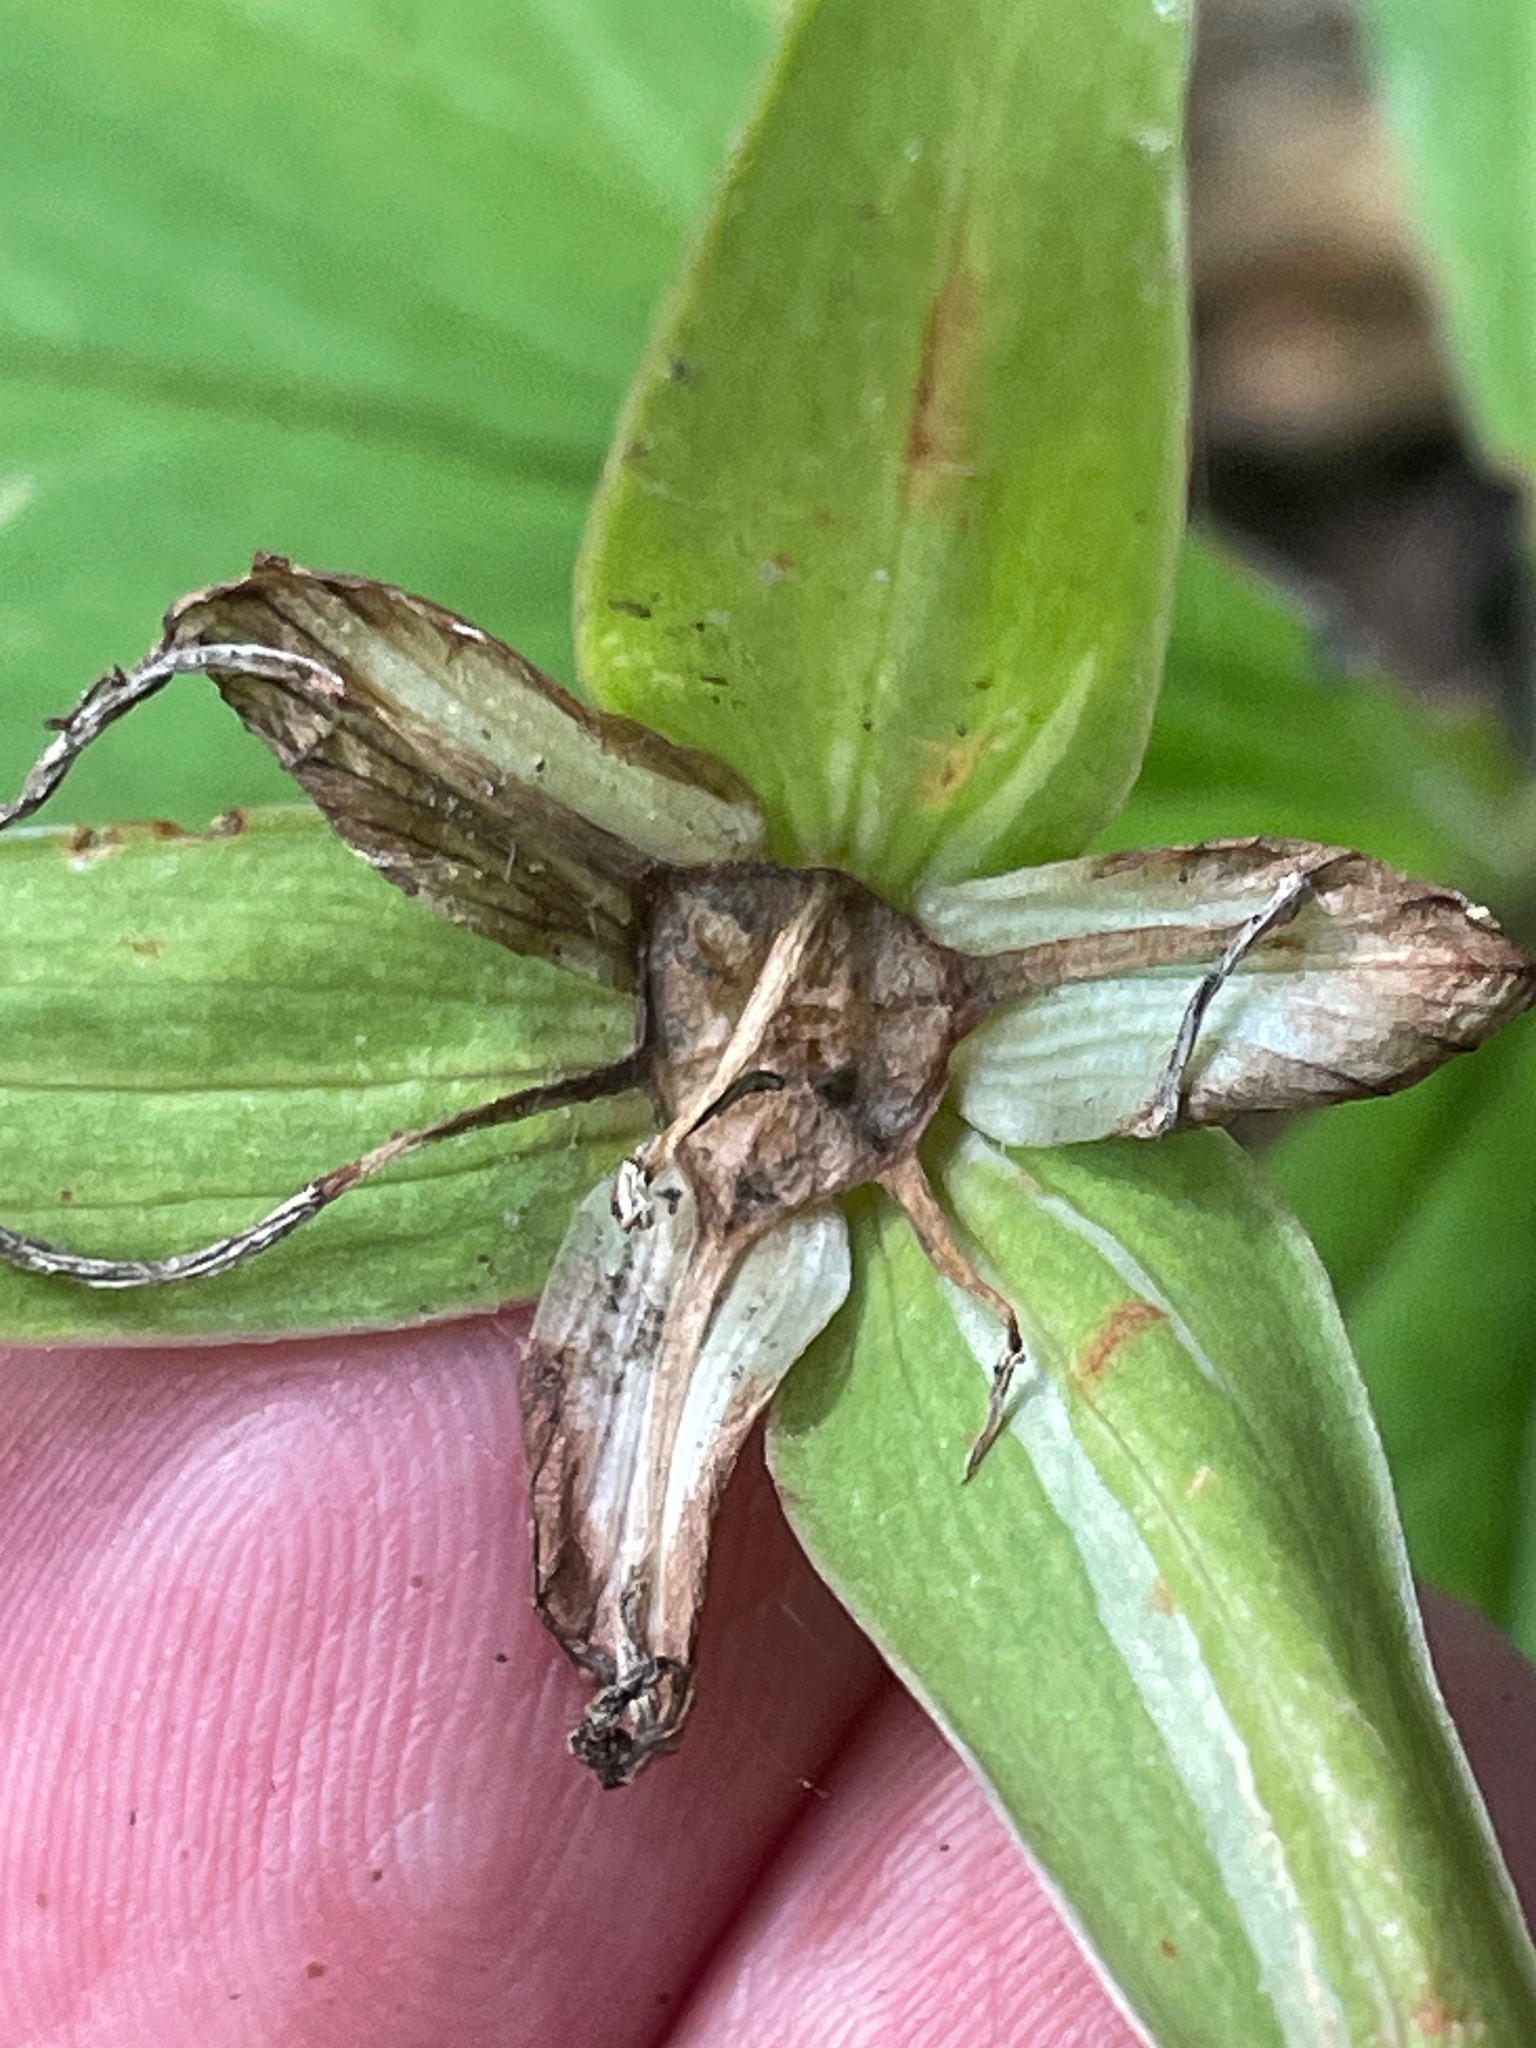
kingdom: Plantae
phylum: Tracheophyta
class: Liliopsida
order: Liliales
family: Melanthiaceae
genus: Trillium
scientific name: Trillium grandiflorum
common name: Great white trillium
